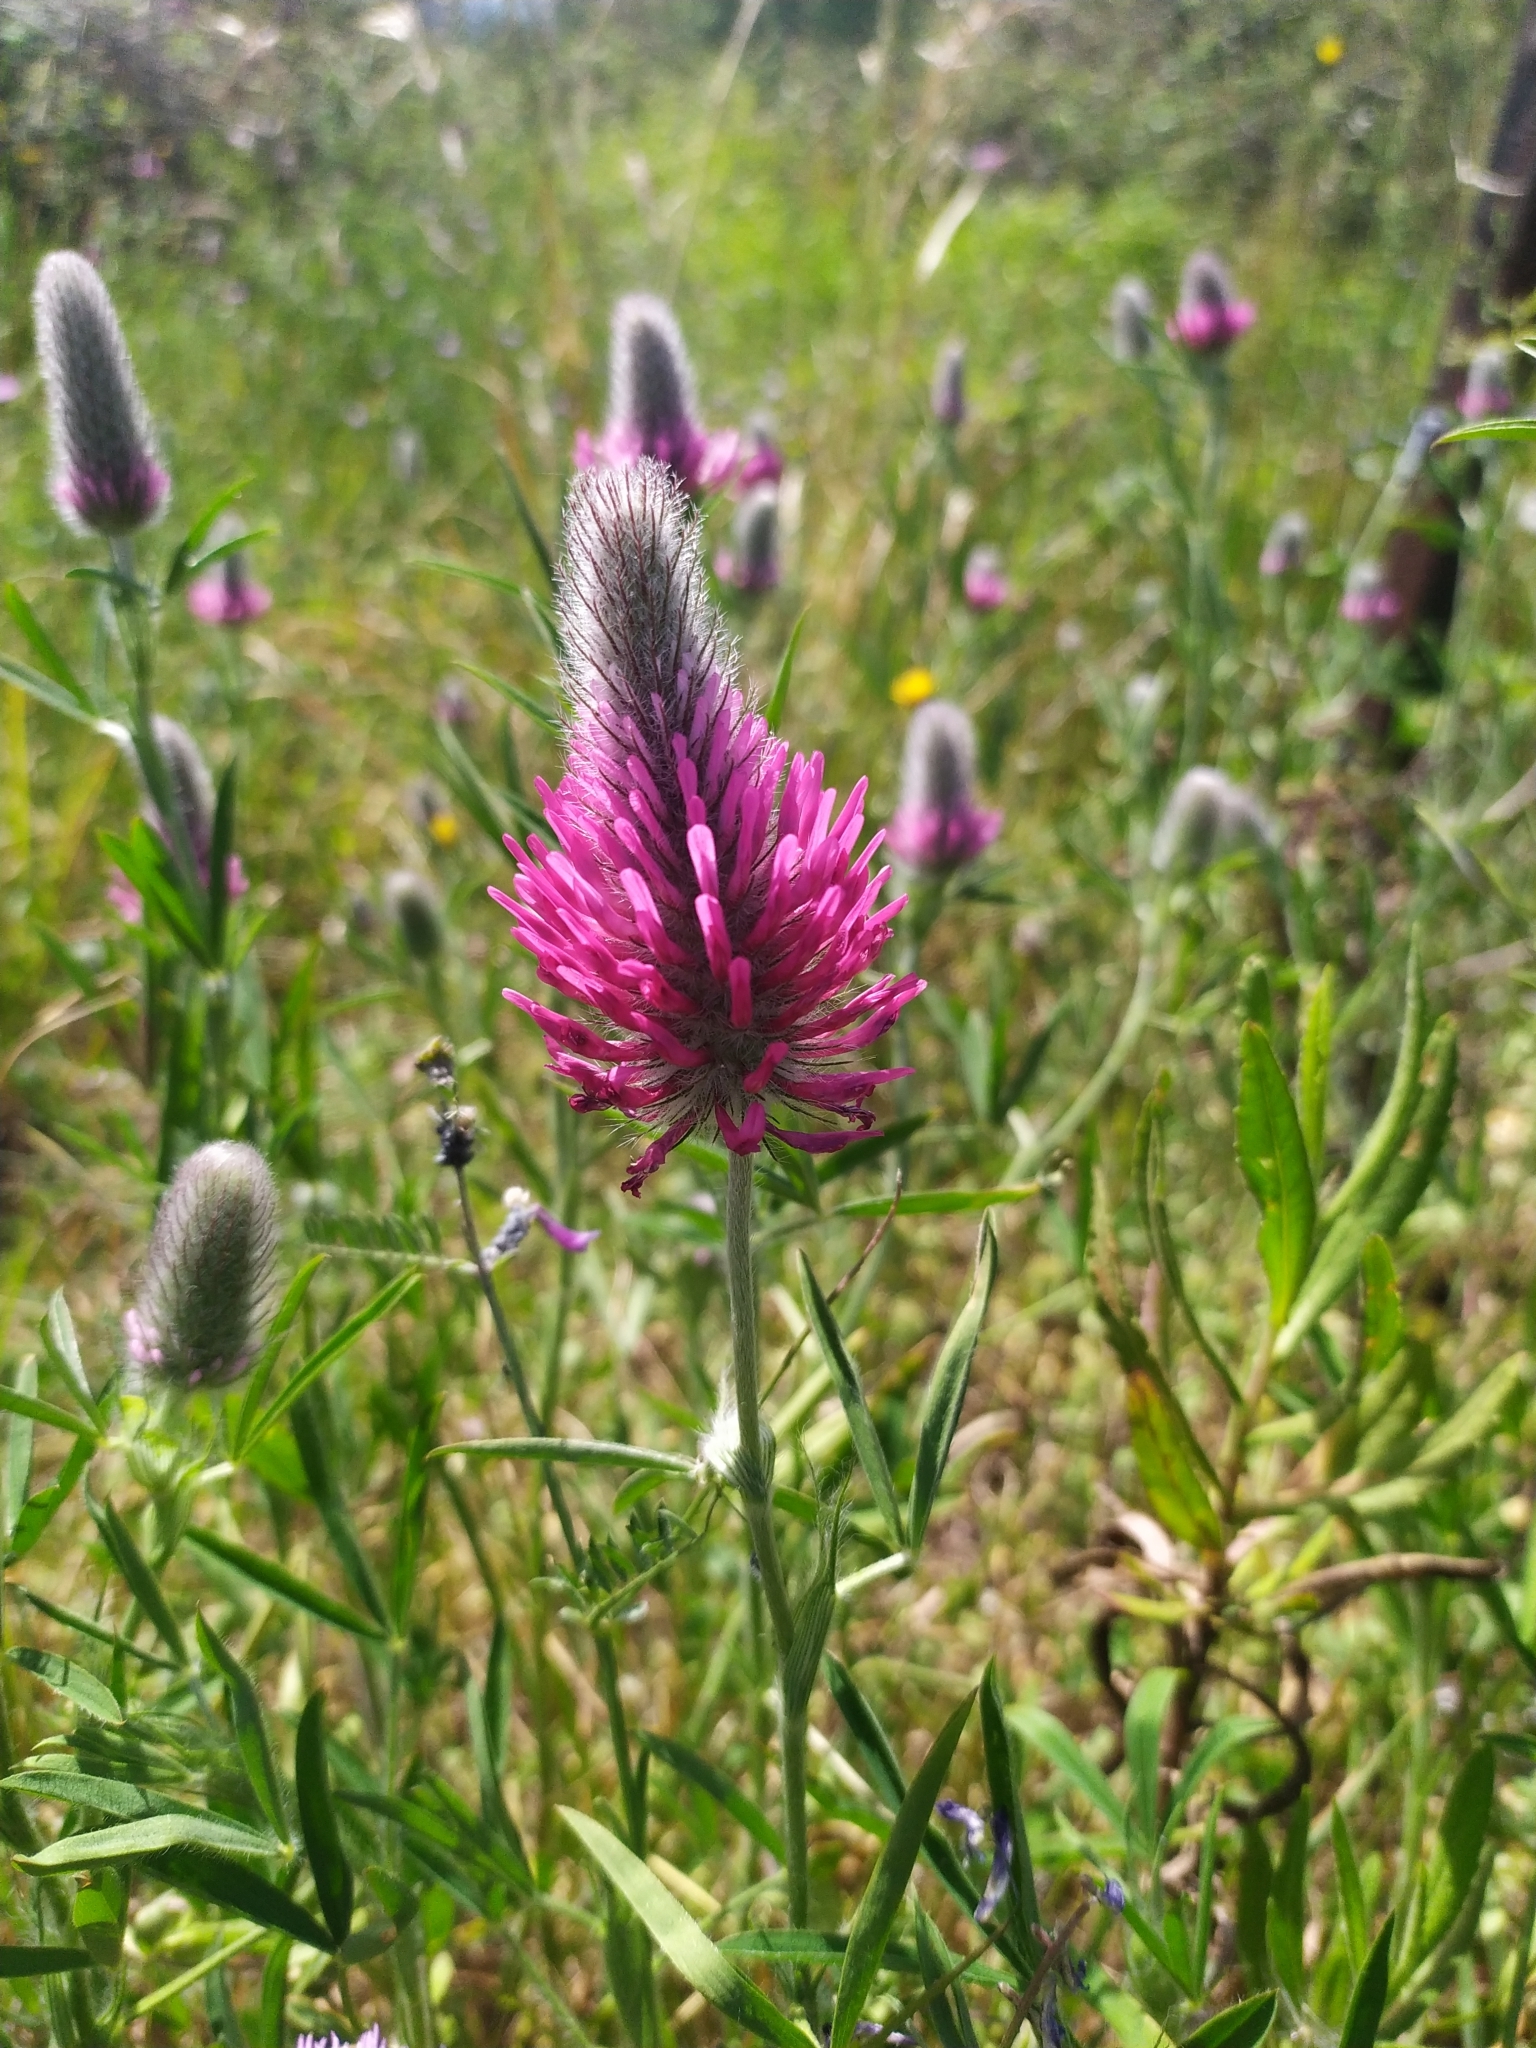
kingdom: Plantae
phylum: Tracheophyta
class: Magnoliopsida
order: Fabales
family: Fabaceae
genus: Trifolium
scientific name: Trifolium purpureum
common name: Purple clover
